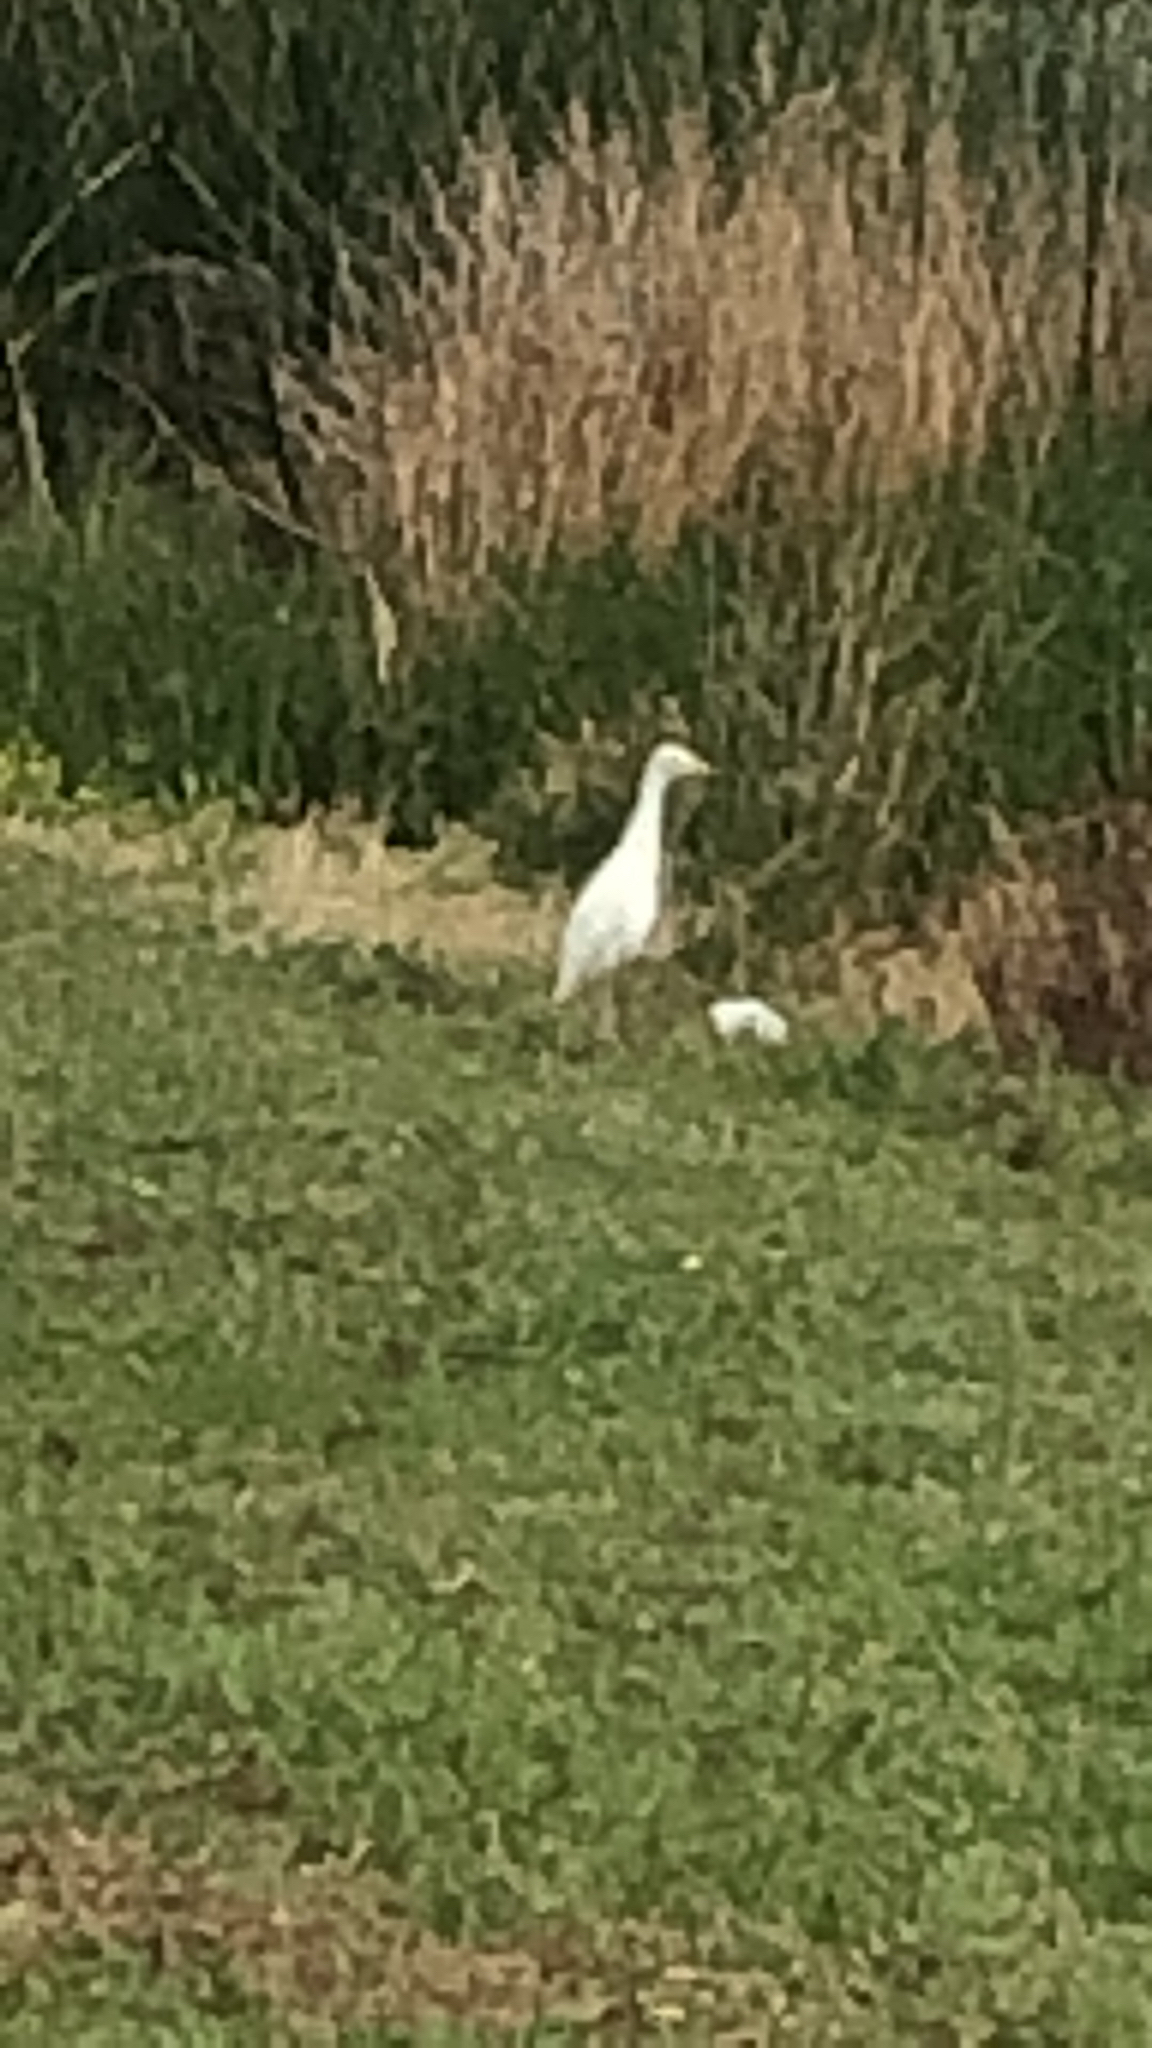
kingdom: Animalia
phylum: Chordata
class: Aves
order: Pelecaniformes
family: Ardeidae
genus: Bubulcus
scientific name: Bubulcus ibis
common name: Cattle egret
